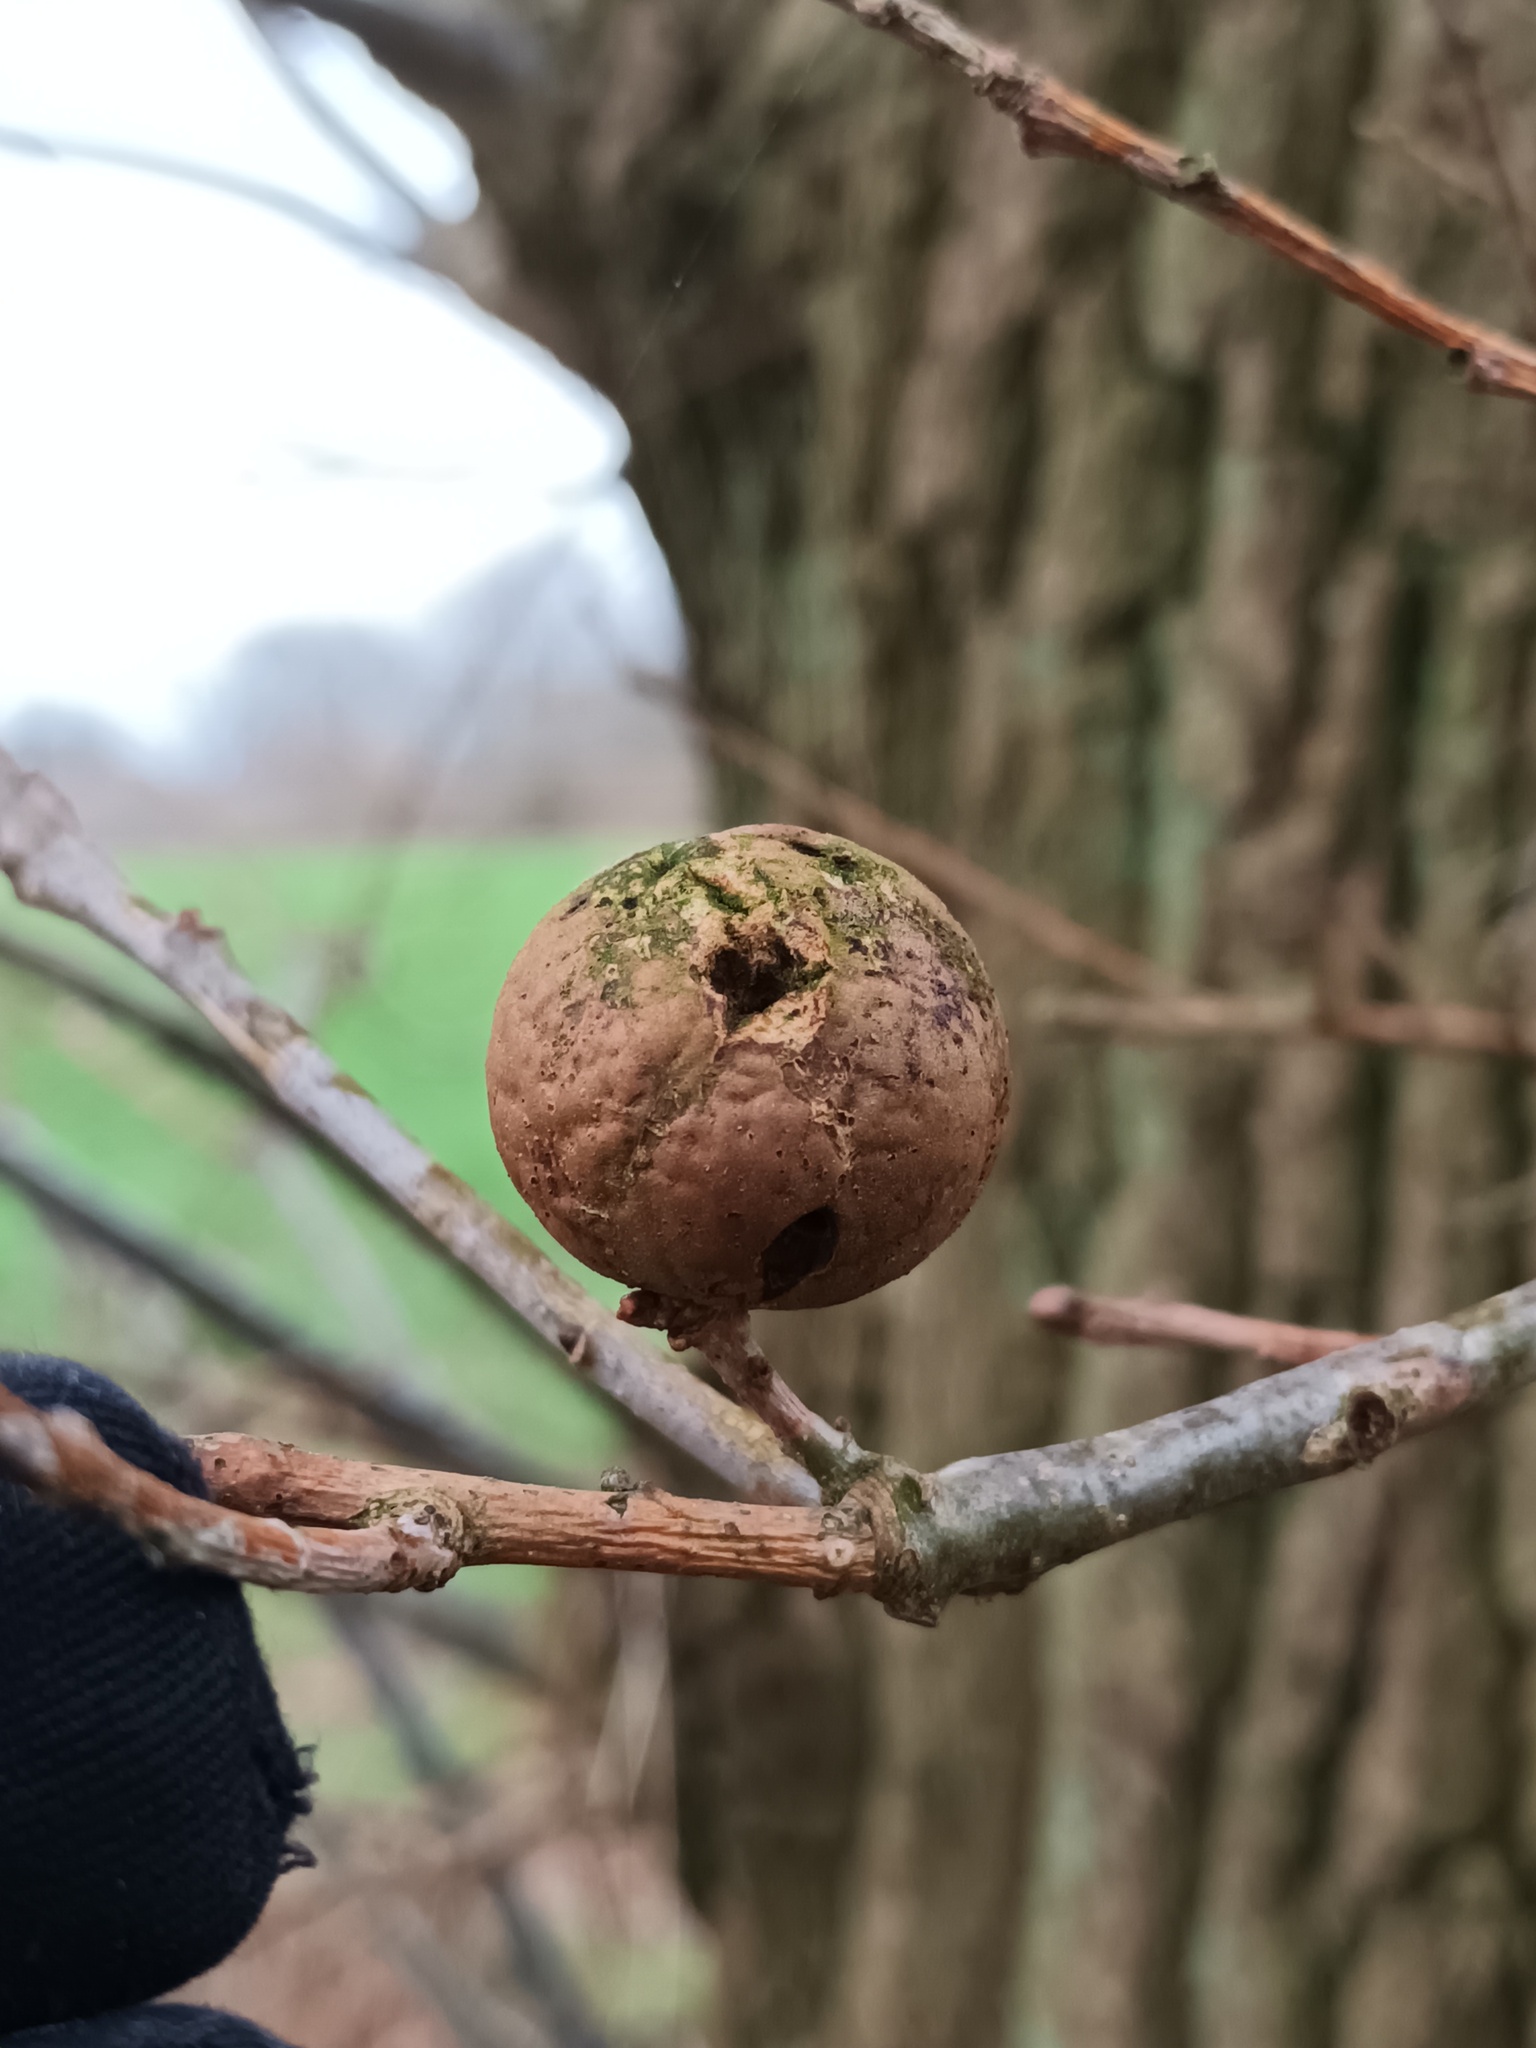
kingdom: Animalia
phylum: Arthropoda
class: Insecta
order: Hymenoptera
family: Cynipidae
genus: Andricus
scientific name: Andricus kollari
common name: Marble gall
